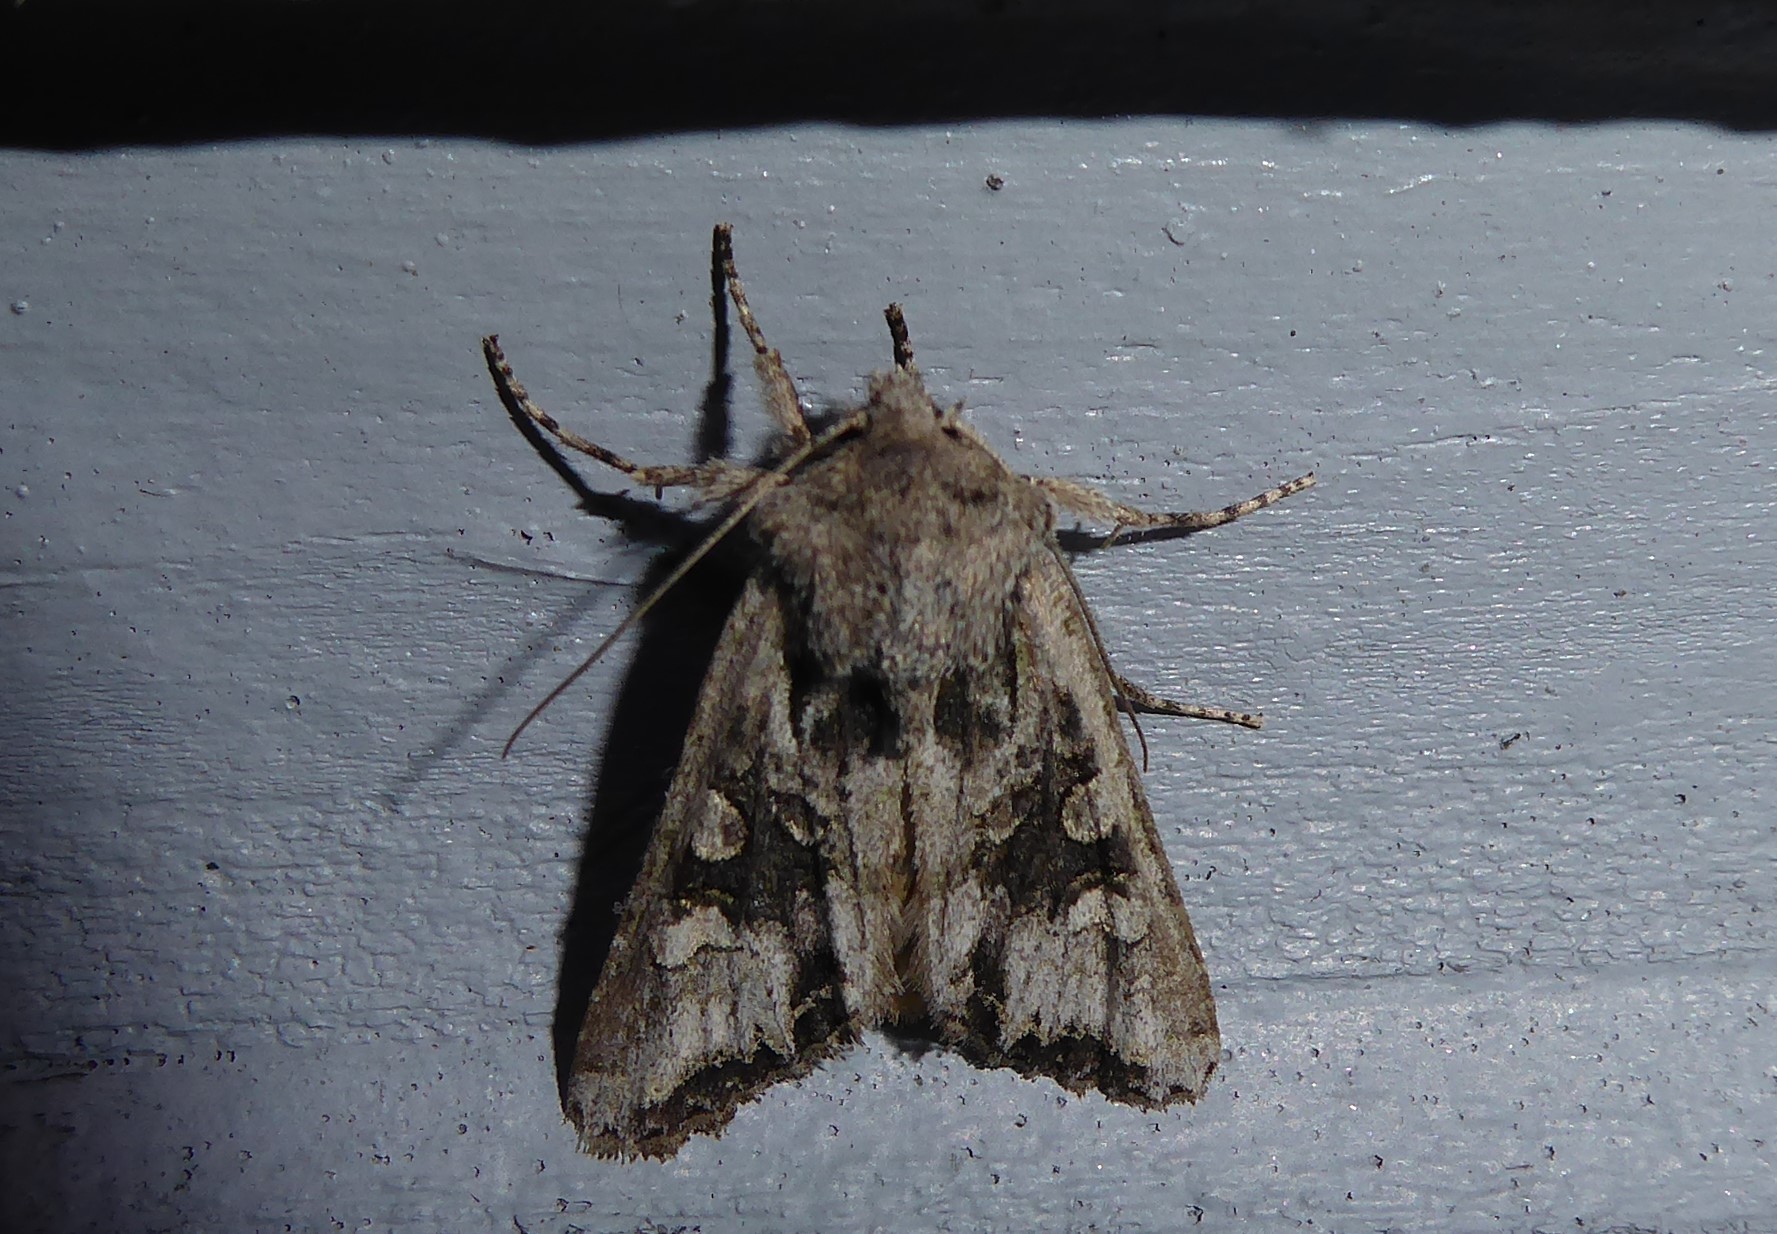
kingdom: Animalia
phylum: Arthropoda
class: Insecta
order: Lepidoptera
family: Noctuidae
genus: Ichneutica
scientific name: Ichneutica
